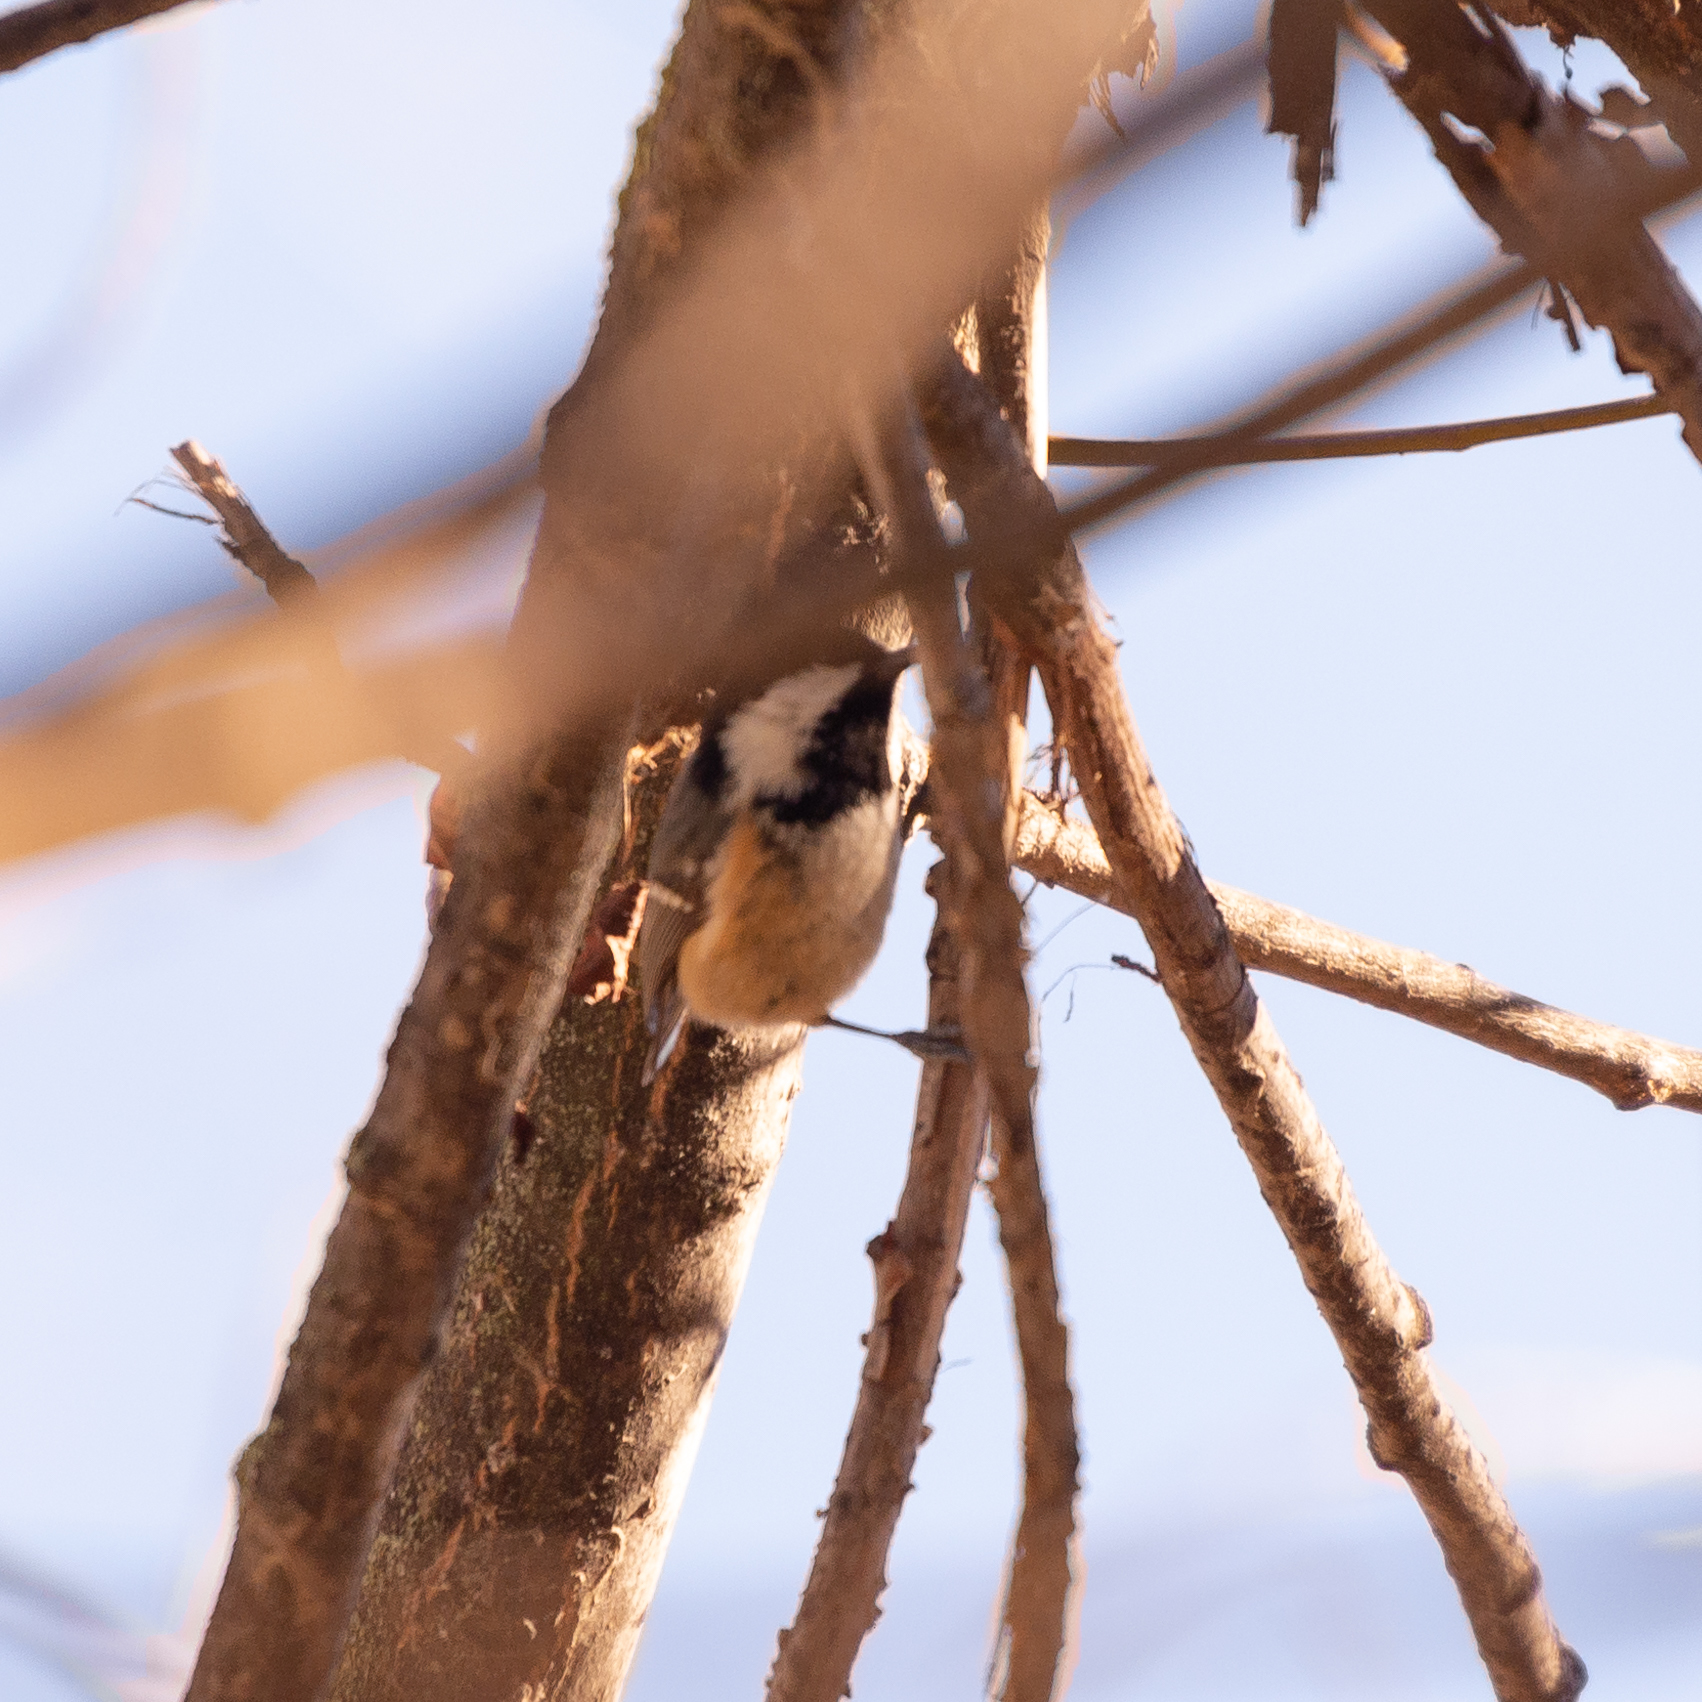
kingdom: Animalia
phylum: Chordata
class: Aves
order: Passeriformes
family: Paridae
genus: Periparus
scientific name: Periparus ater
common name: Coal tit
